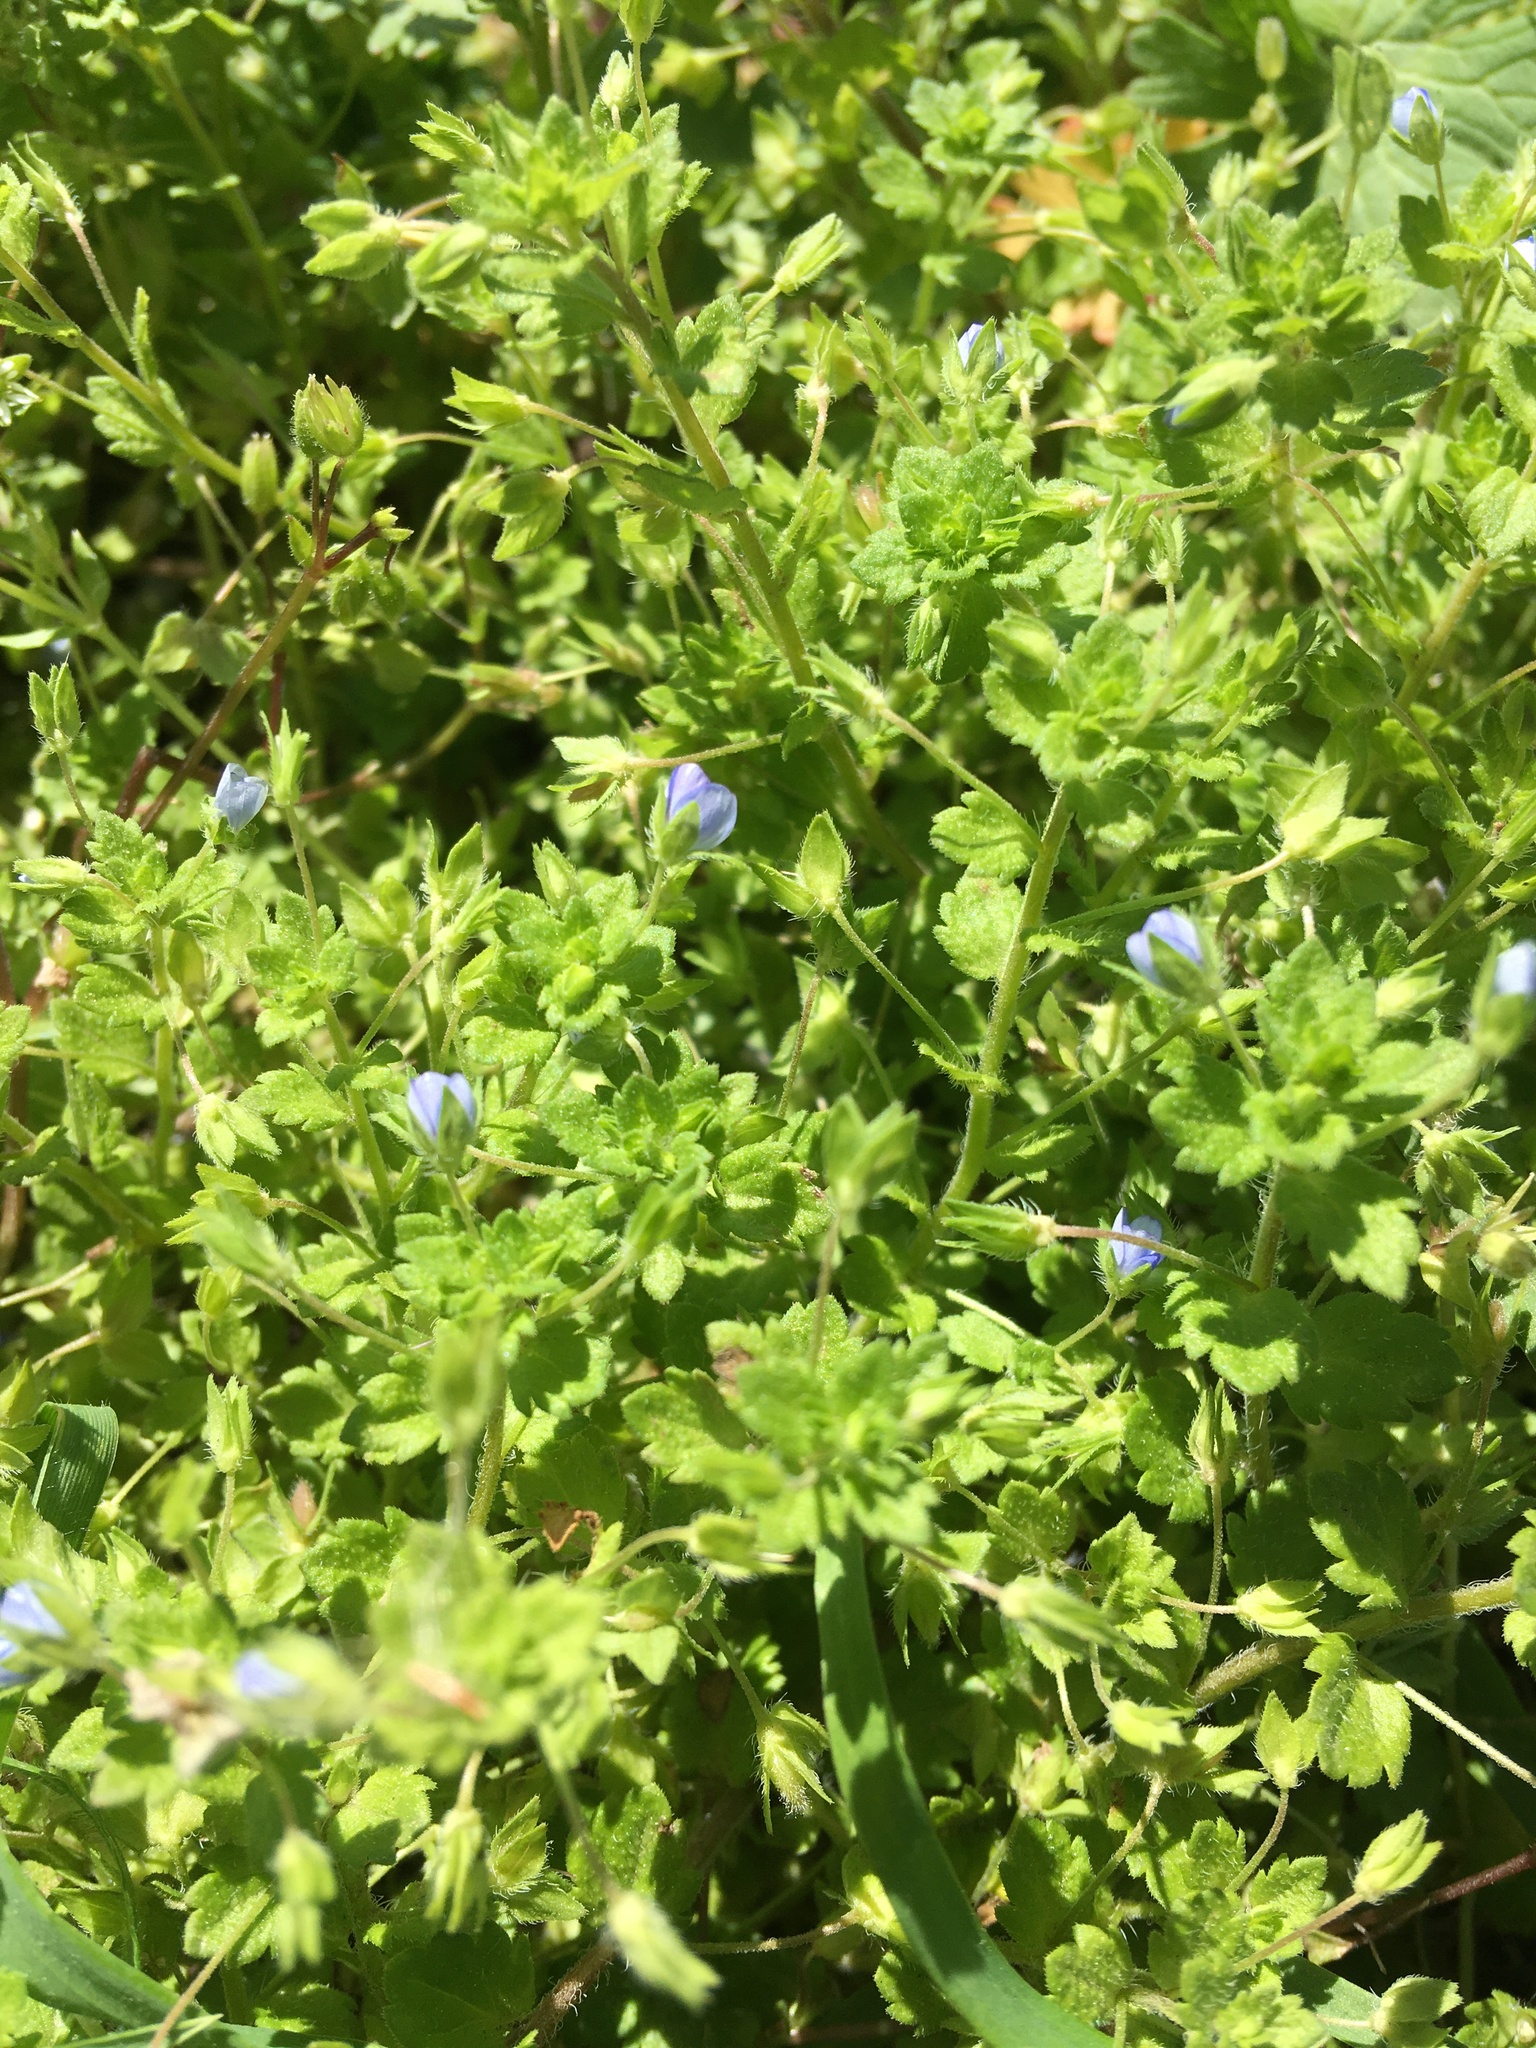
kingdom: Plantae
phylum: Tracheophyta
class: Magnoliopsida
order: Lamiales
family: Plantaginaceae
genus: Veronica
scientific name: Veronica persica
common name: Common field-speedwell
